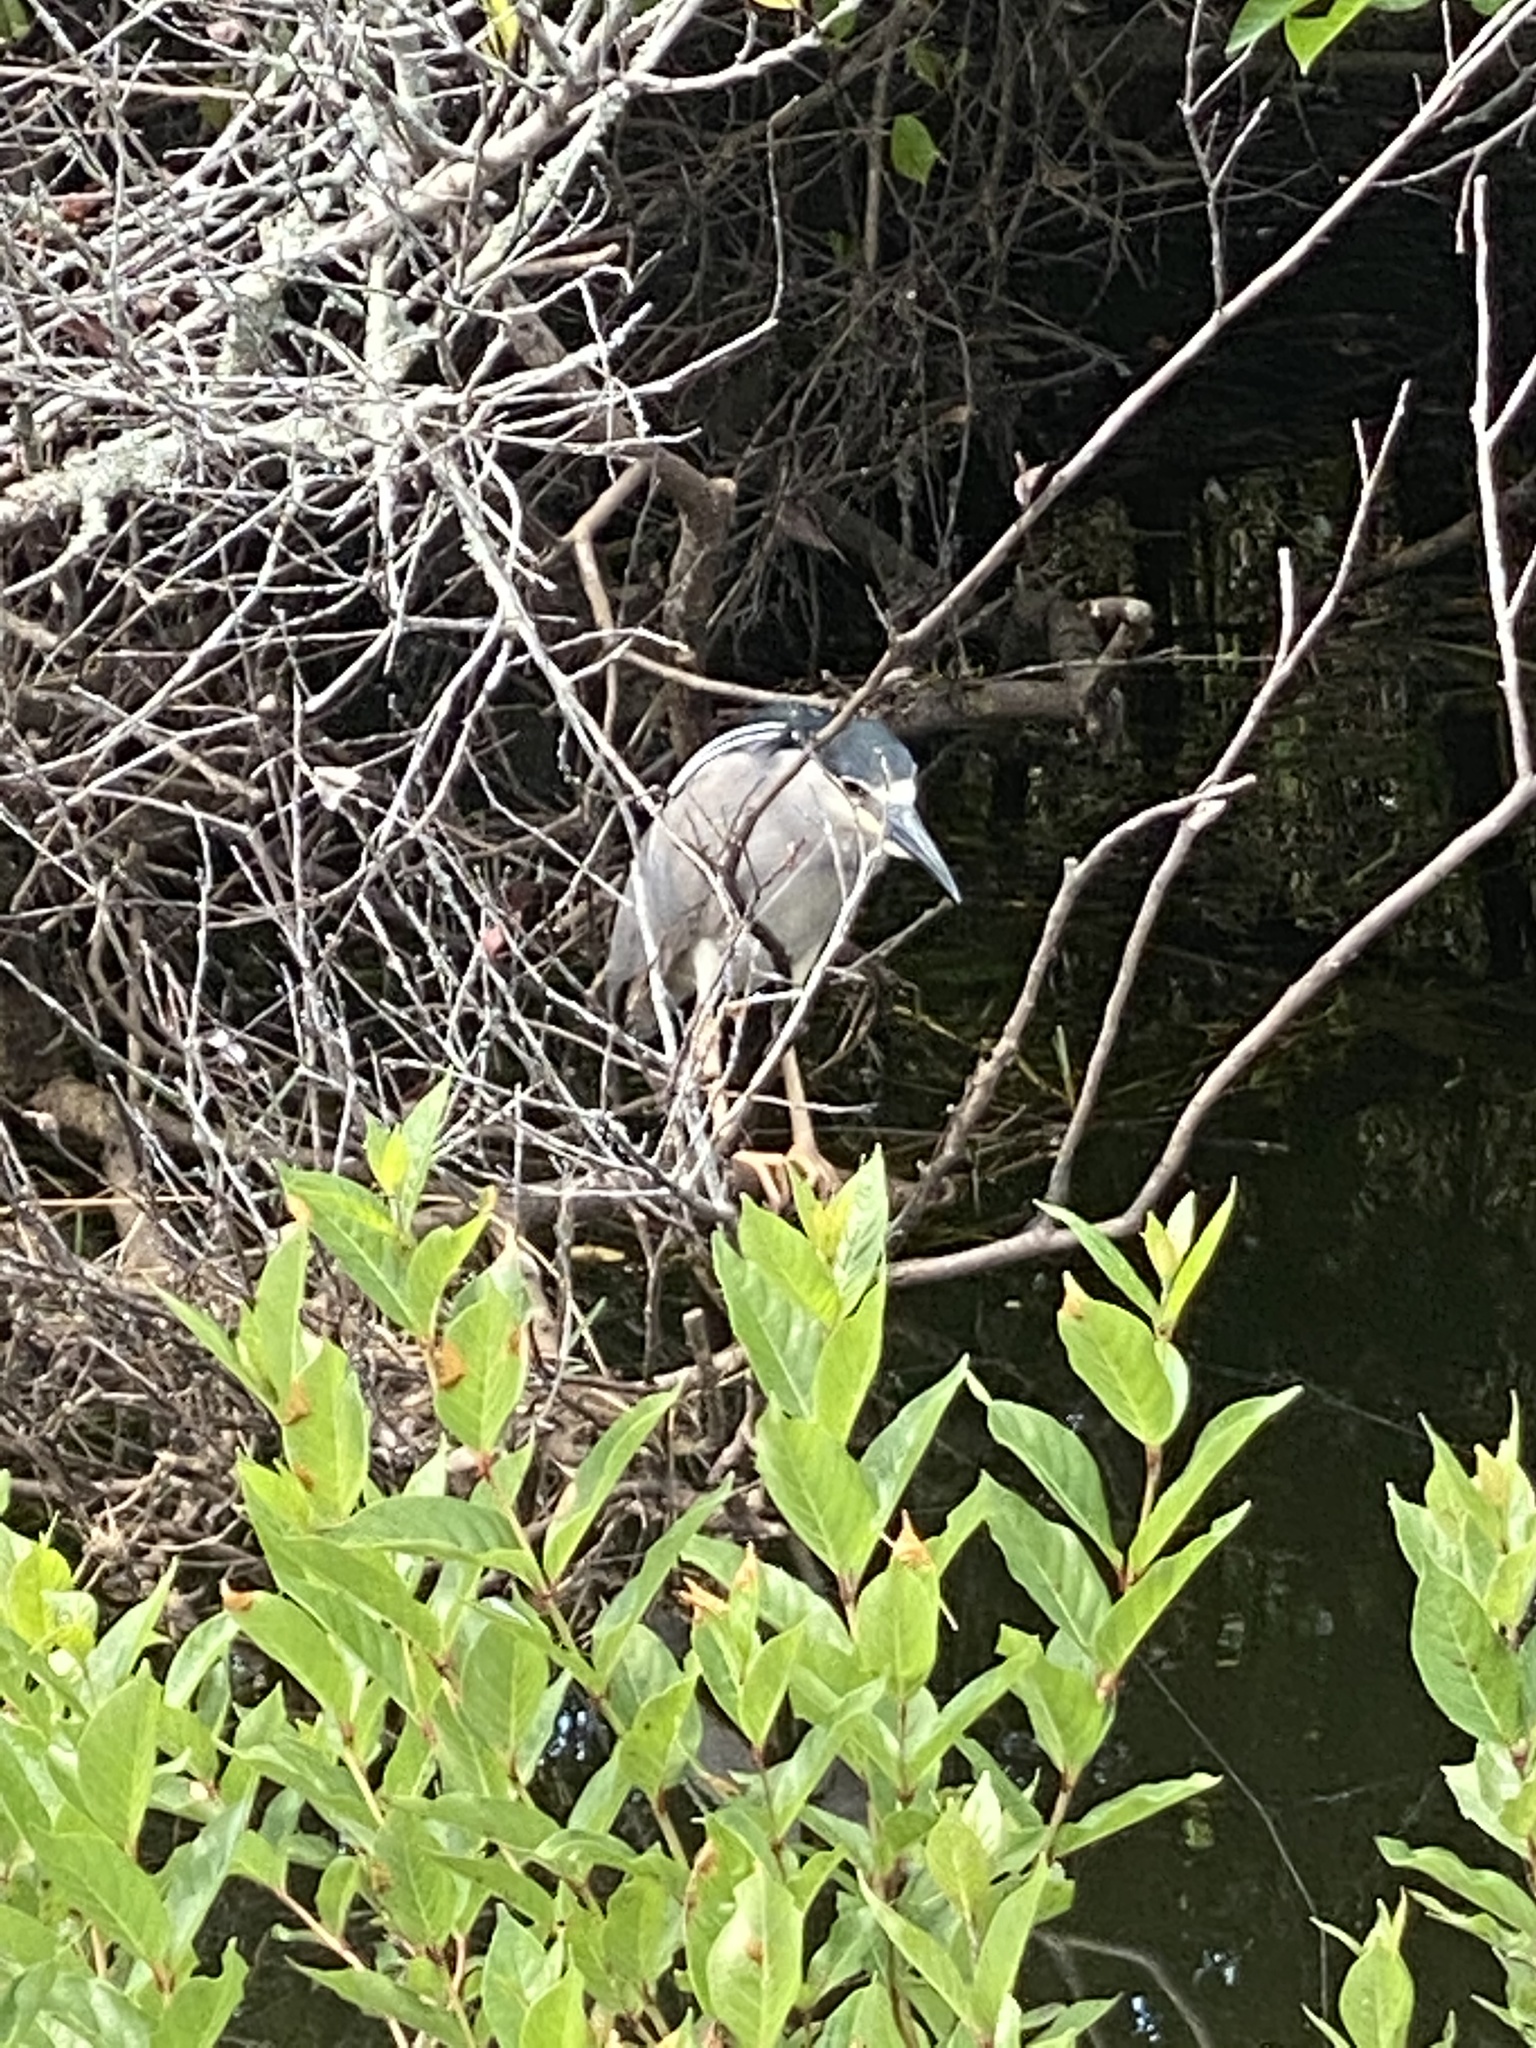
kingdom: Animalia
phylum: Chordata
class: Aves
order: Pelecaniformes
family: Ardeidae
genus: Nycticorax
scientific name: Nycticorax nycticorax
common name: Black-crowned night heron
